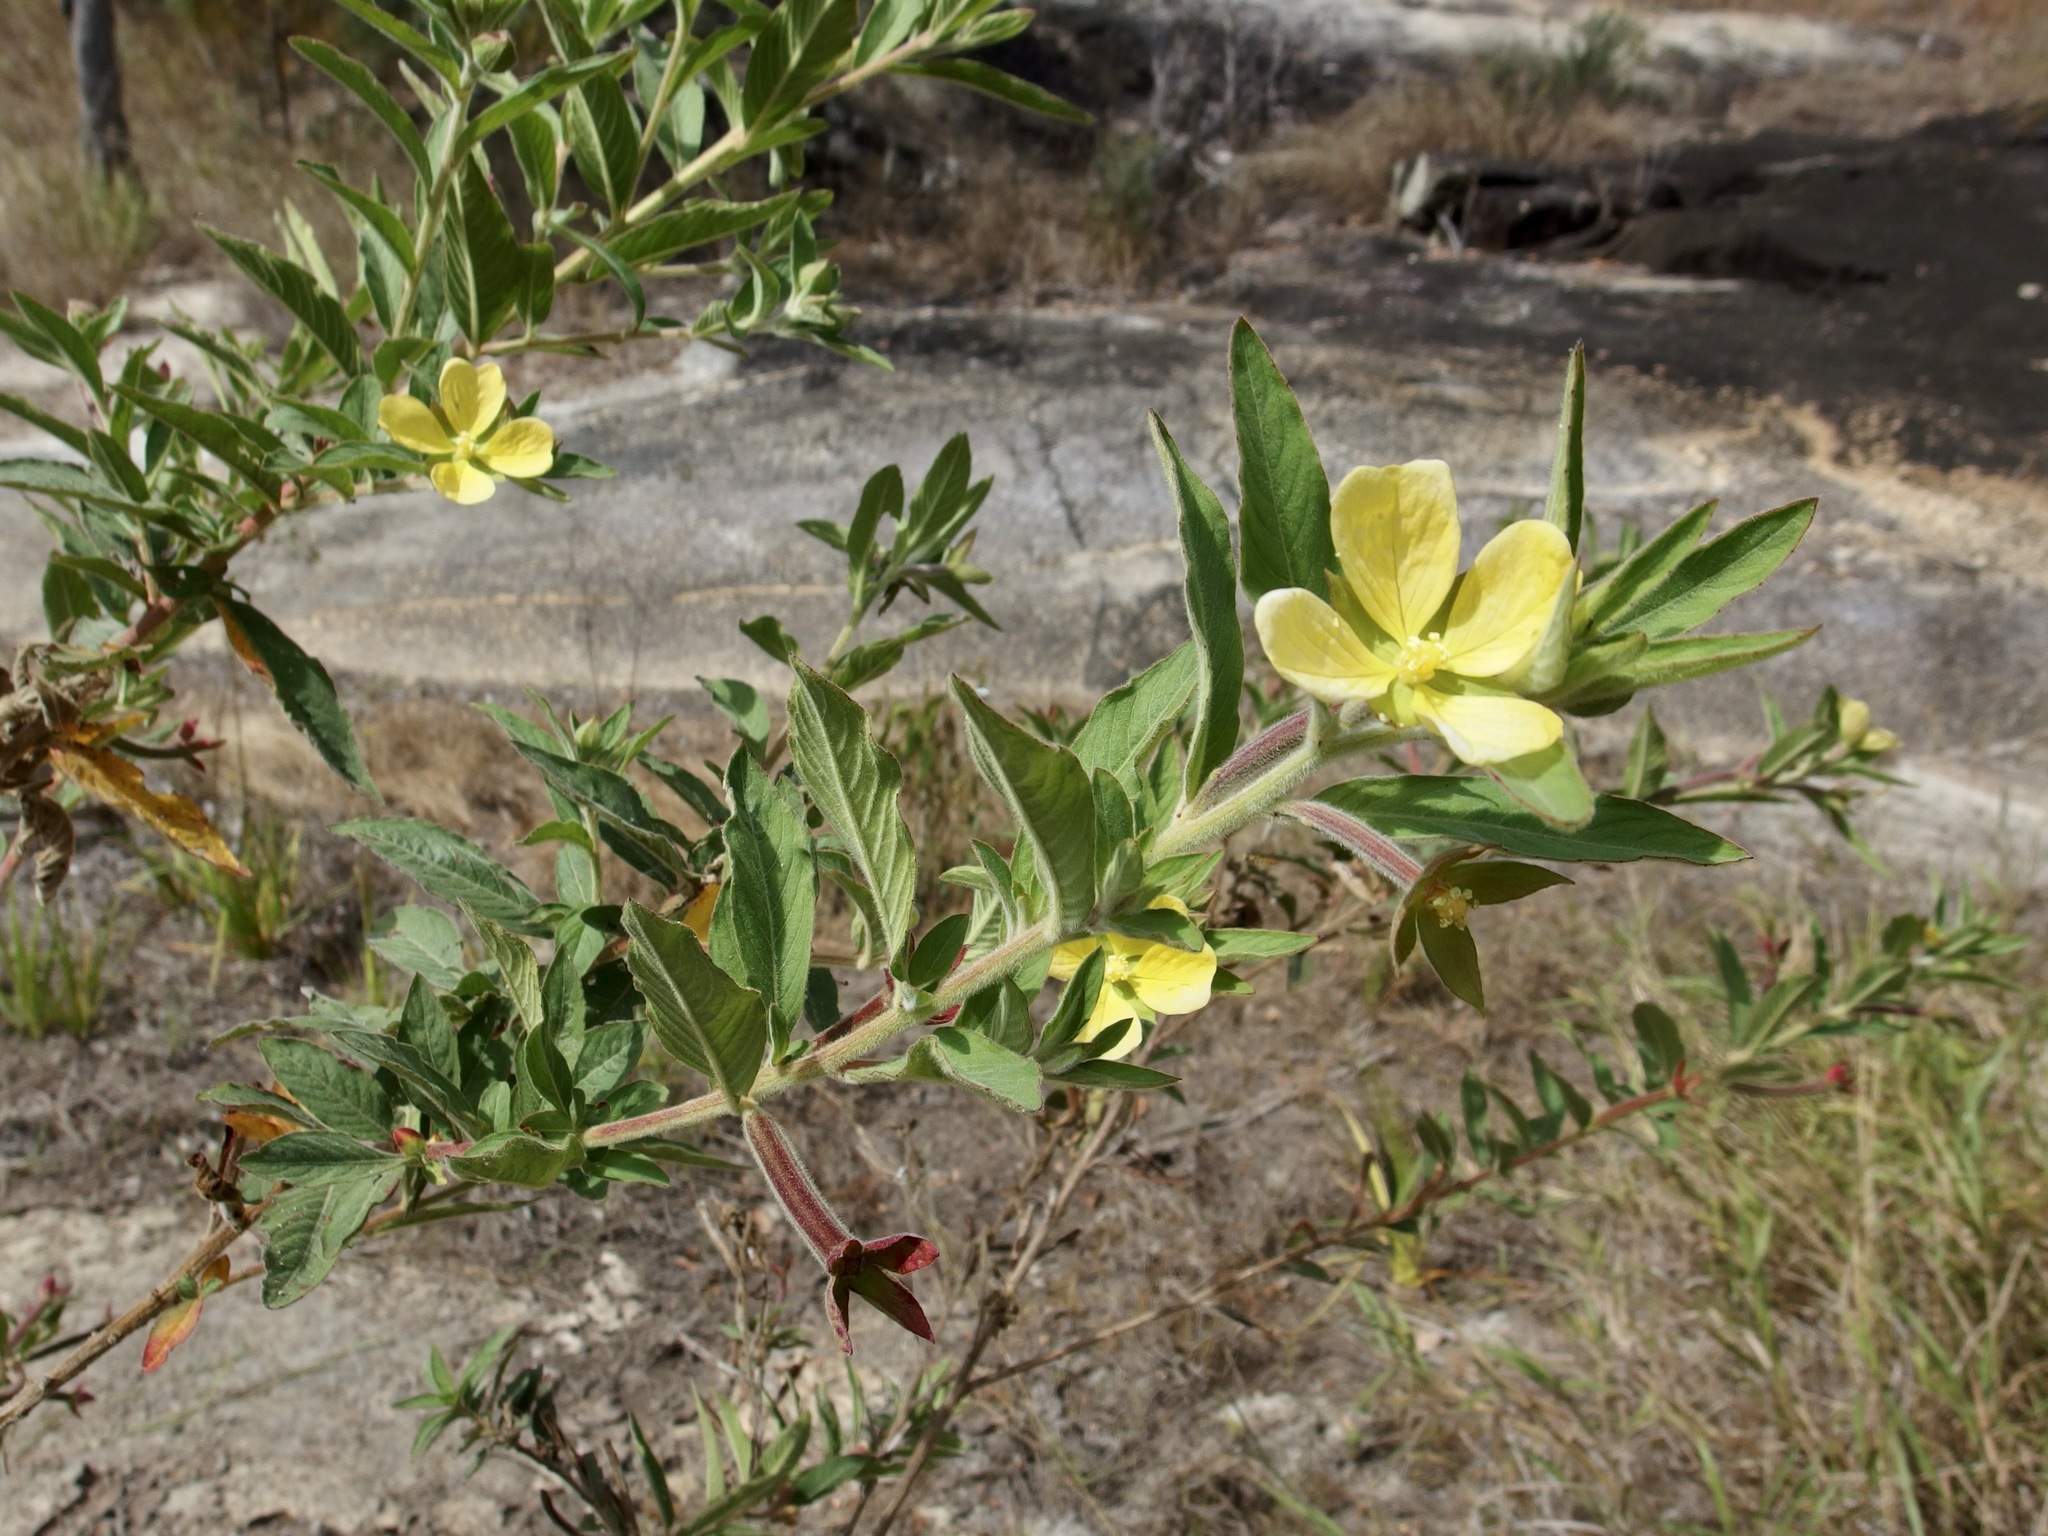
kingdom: Plantae
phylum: Tracheophyta
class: Magnoliopsida
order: Myrtales
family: Onagraceae
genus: Ludwigia
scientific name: Ludwigia octovalvis
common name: Water-primrose
